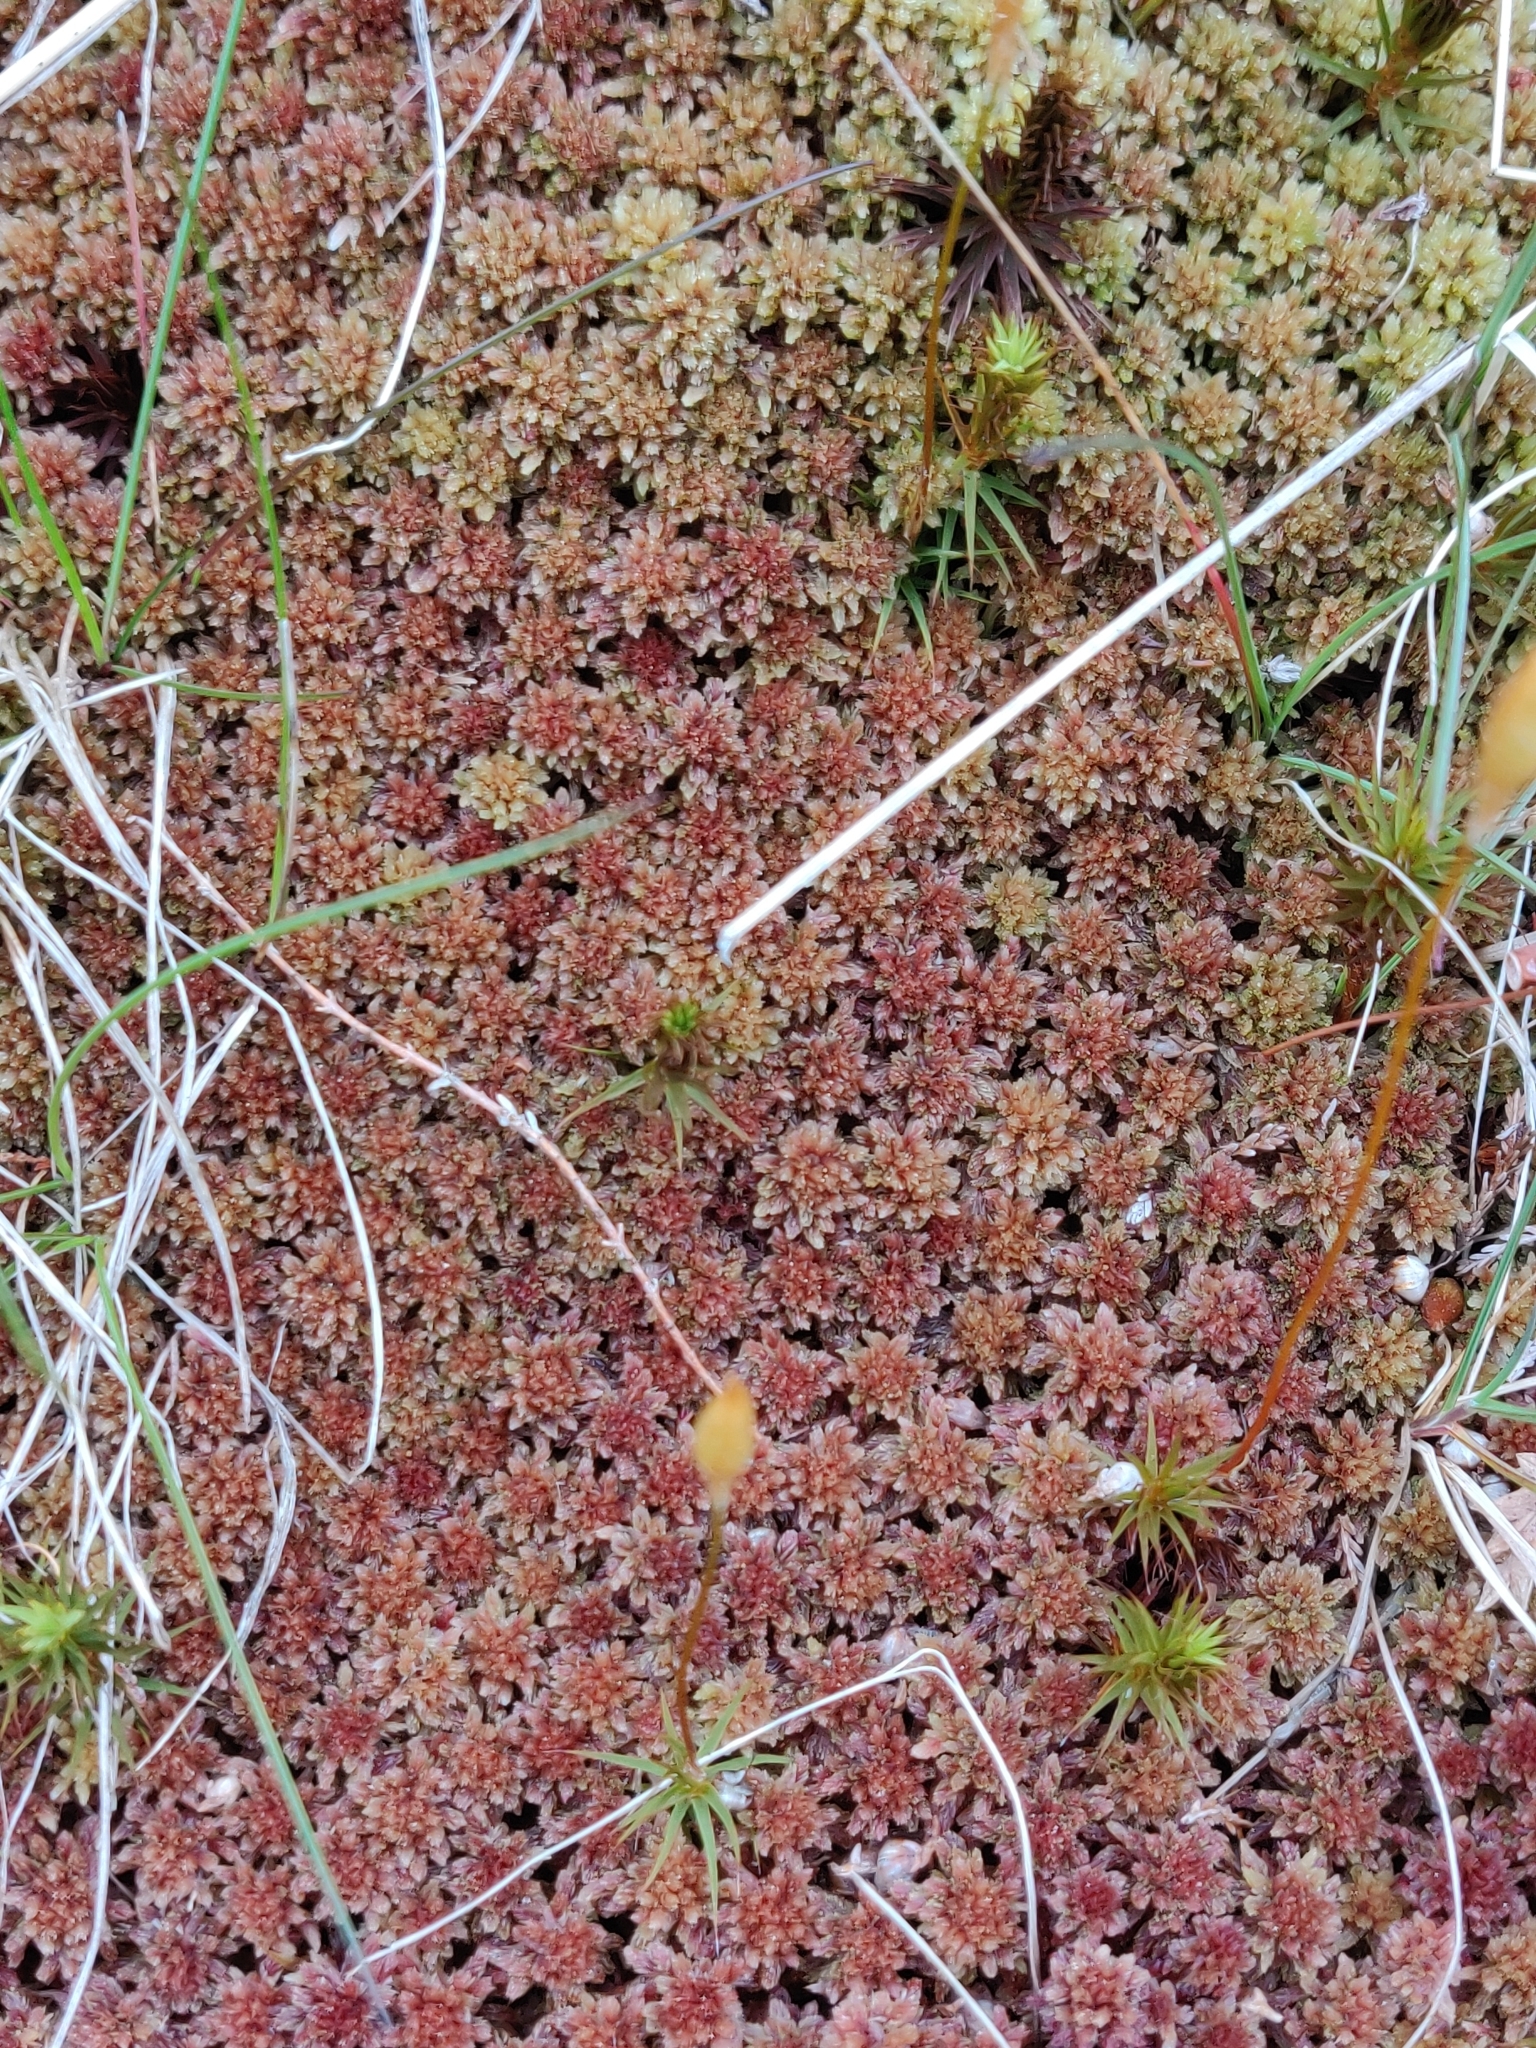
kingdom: Plantae
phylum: Bryophyta
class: Sphagnopsida
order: Sphagnales
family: Sphagnaceae
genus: Sphagnum
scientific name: Sphagnum capillifolium
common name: Small red peat moss
